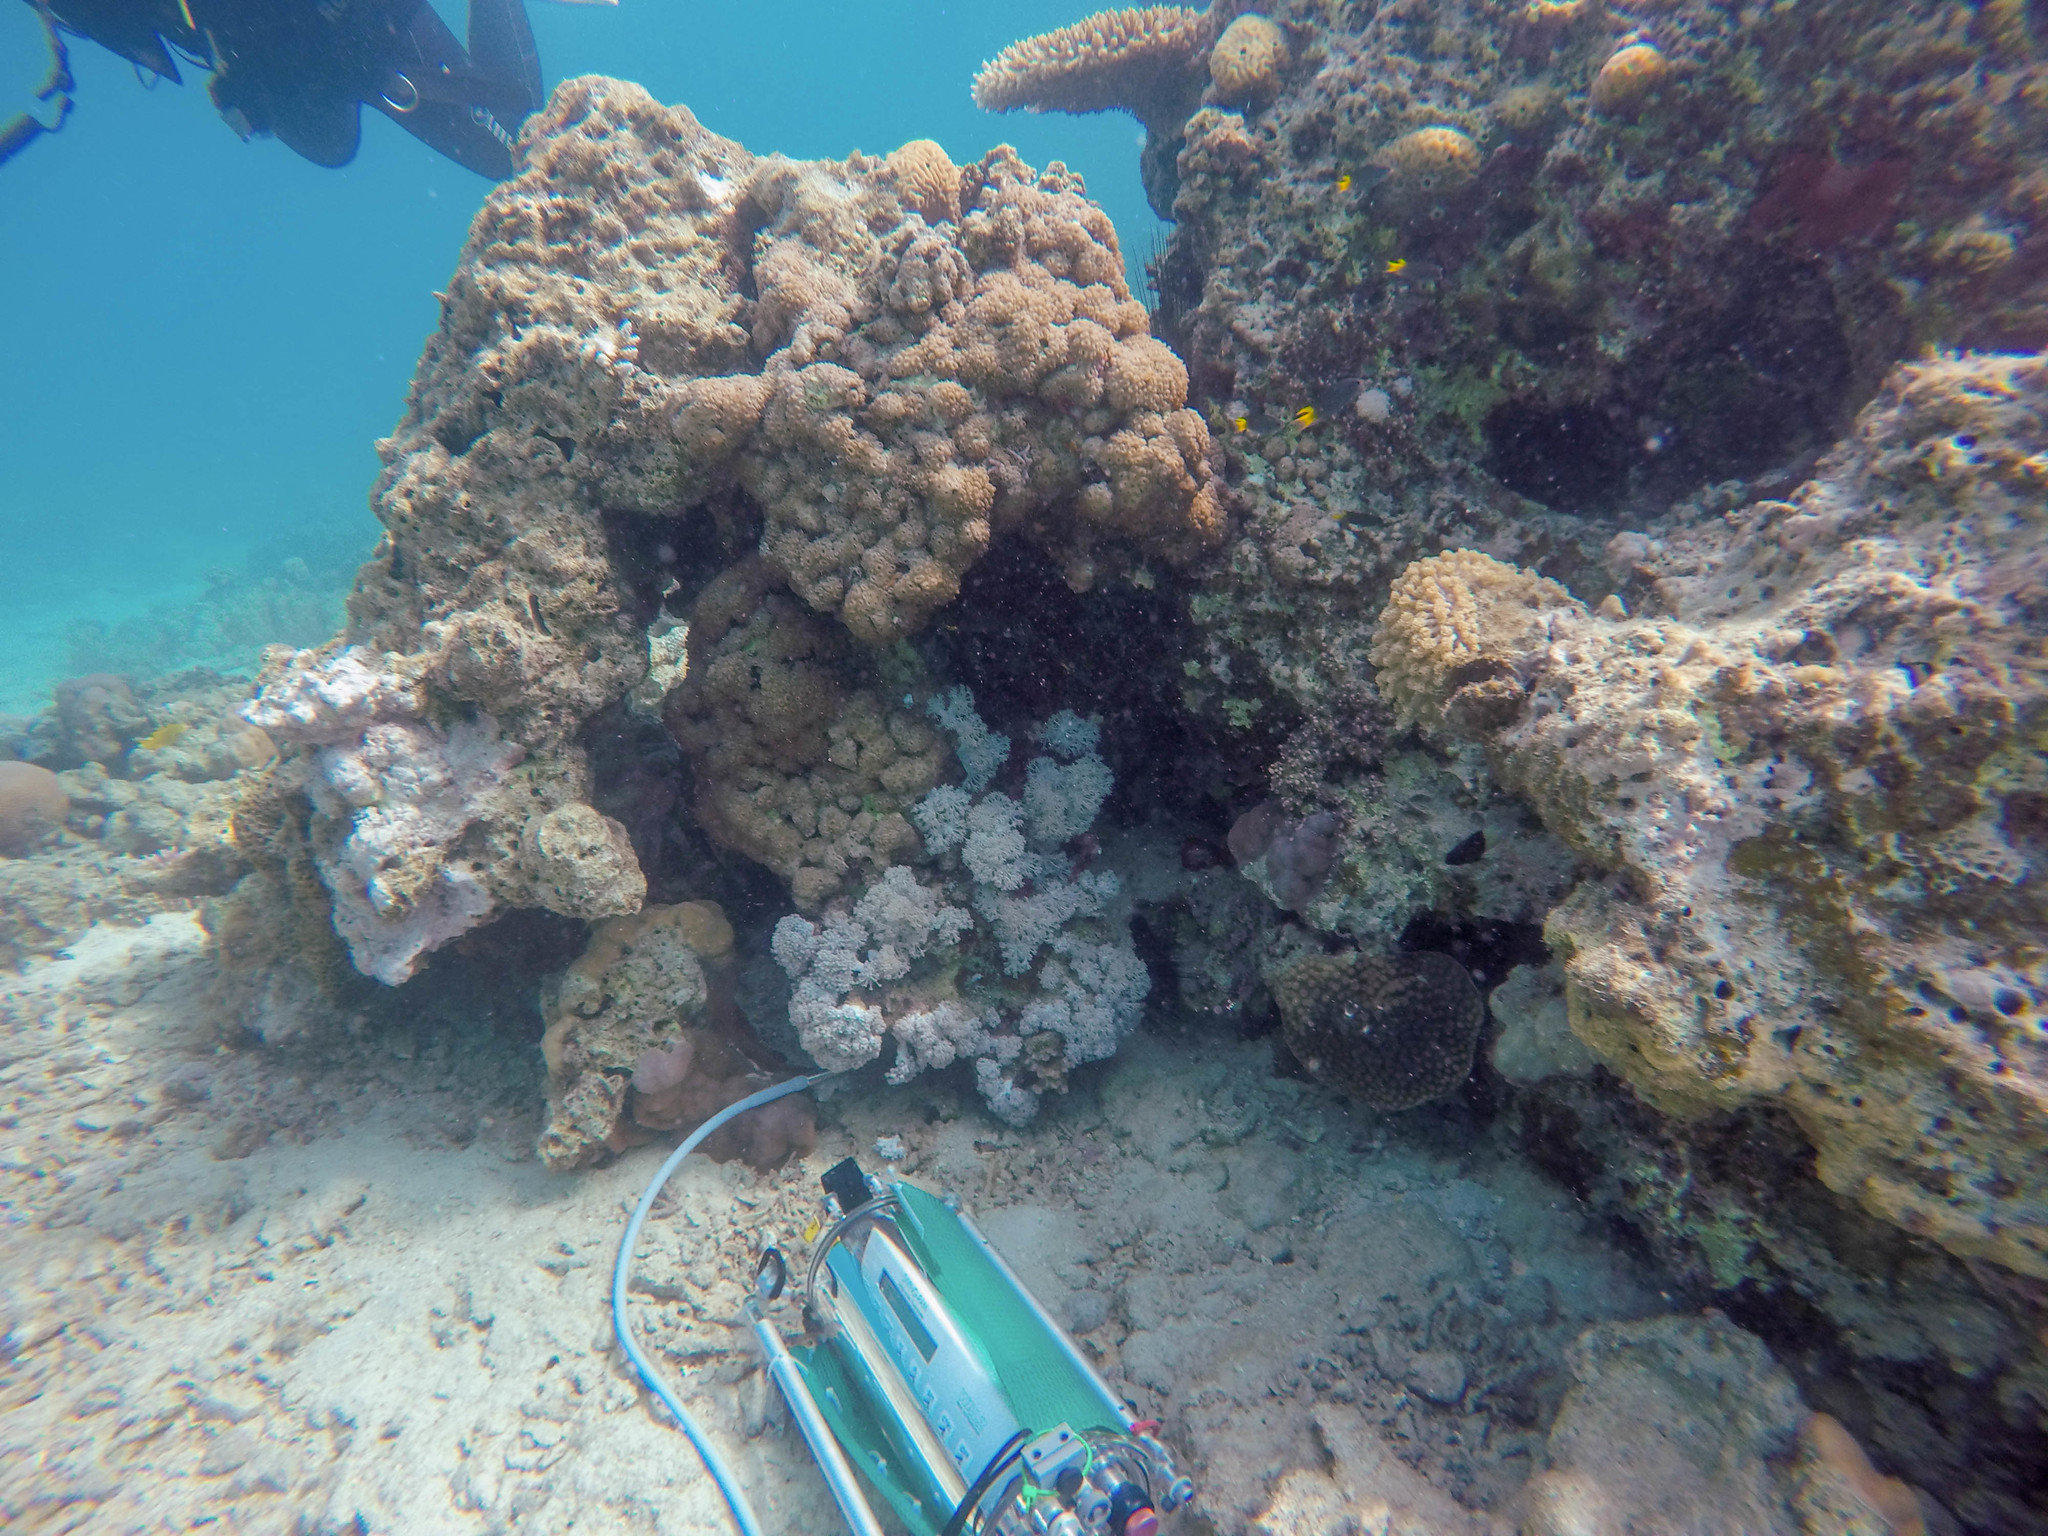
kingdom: Animalia
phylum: Cnidaria
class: Anthozoa
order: Zoantharia
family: Sphenopidae
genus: Palythoa
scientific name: Palythoa tuberculosa
